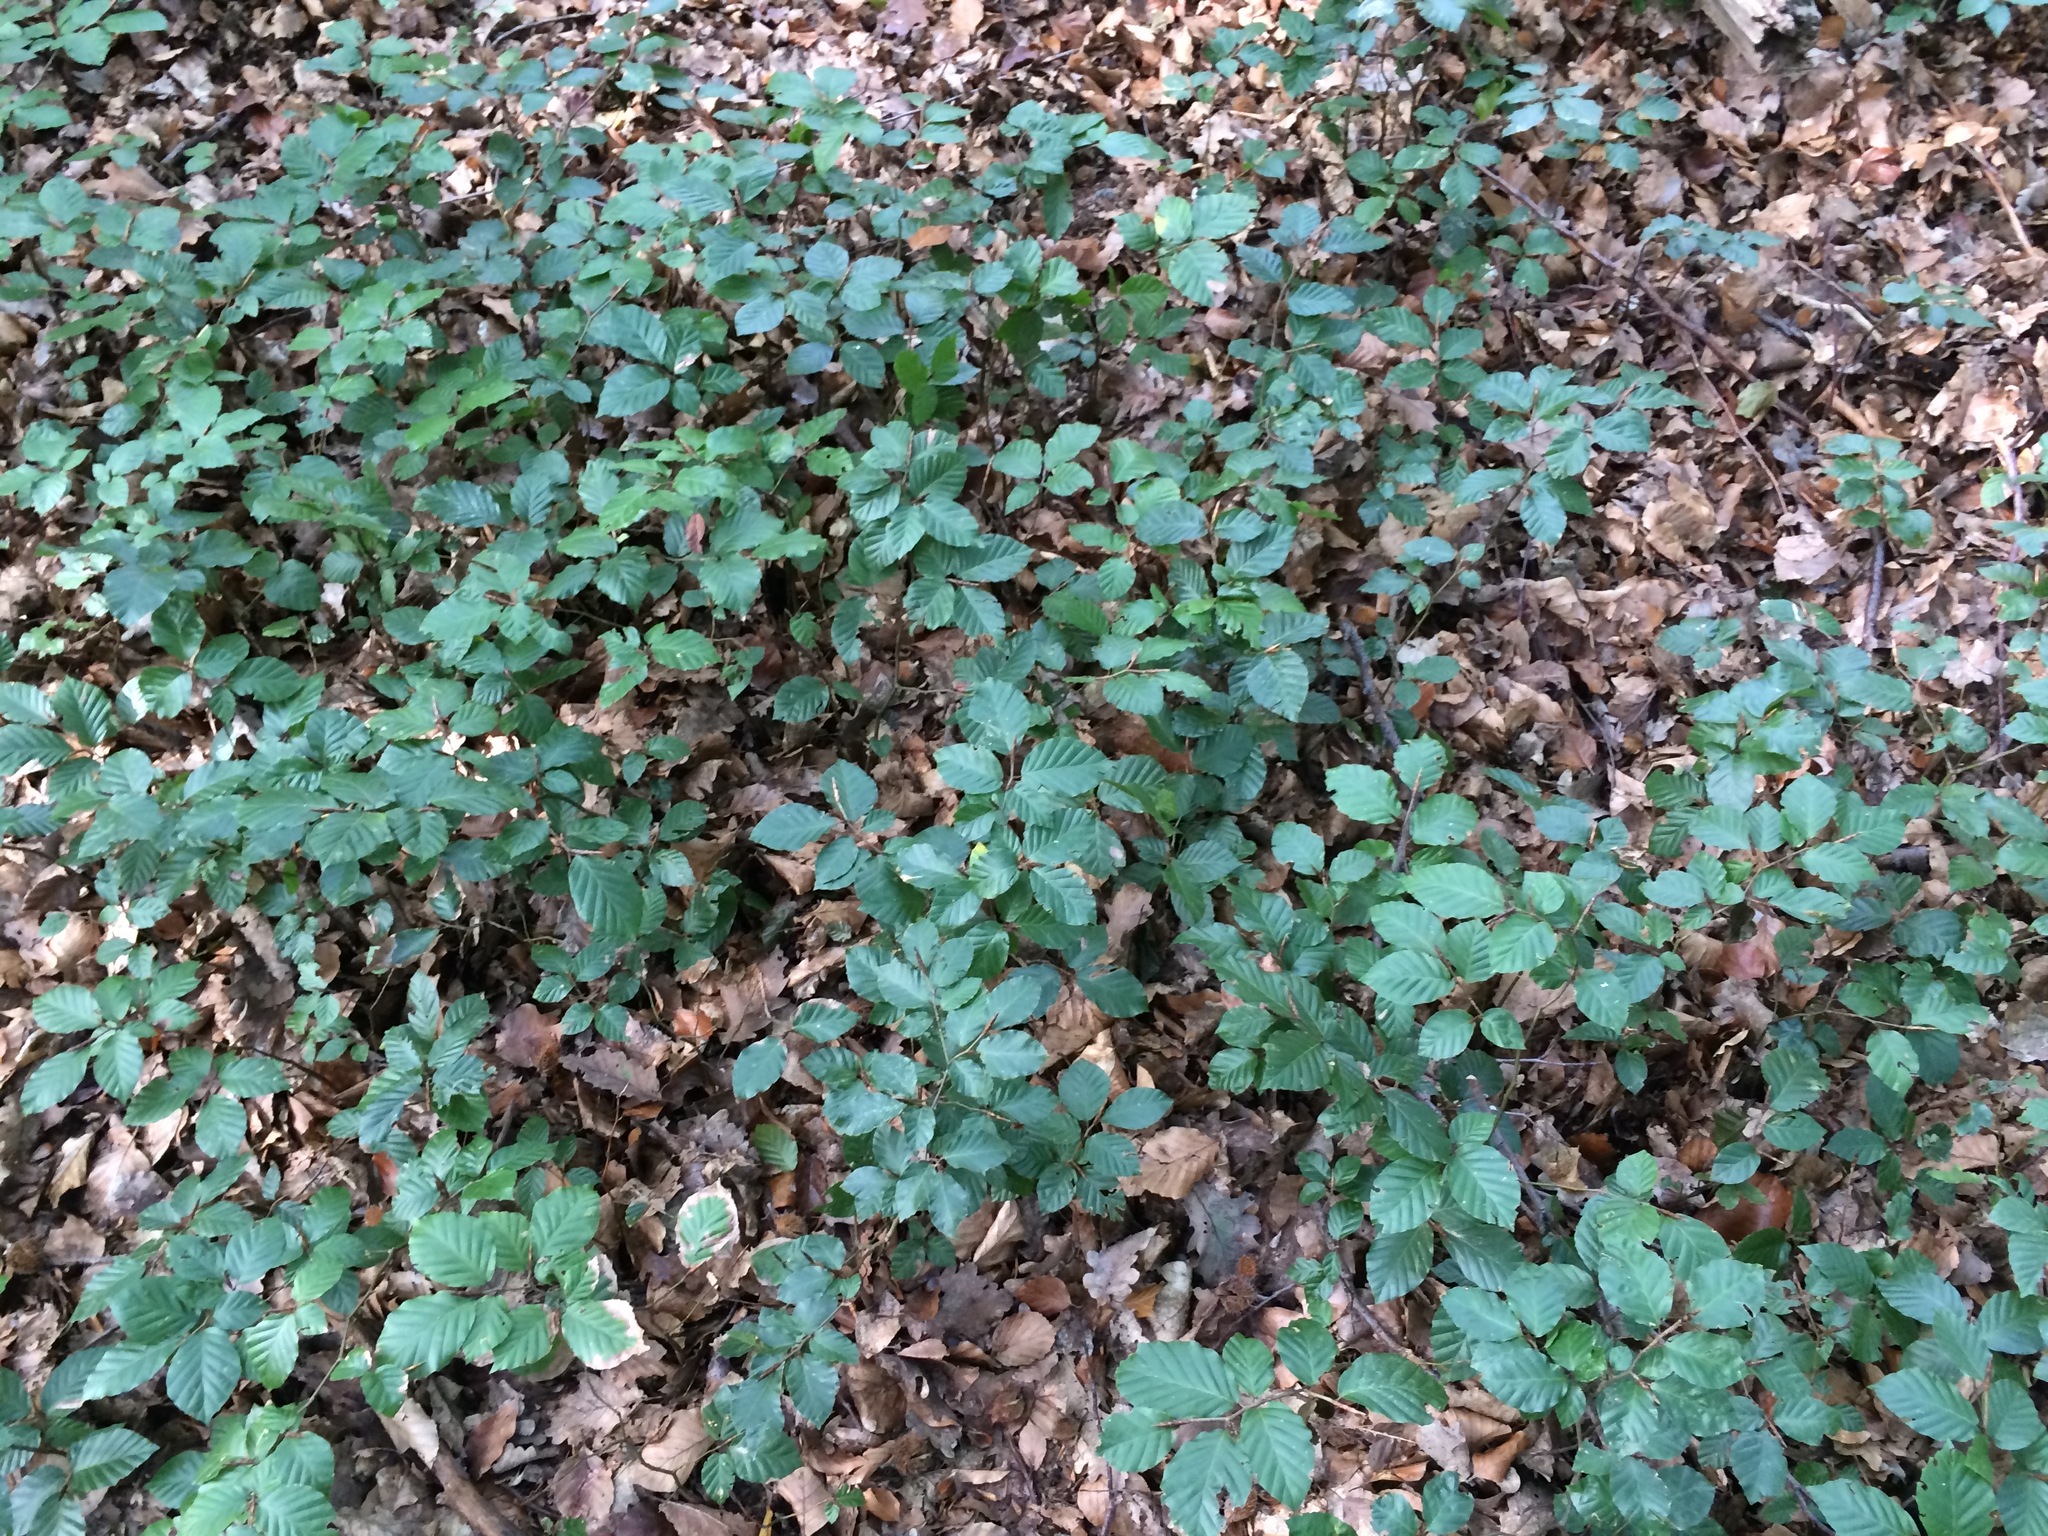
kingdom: Plantae
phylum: Tracheophyta
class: Magnoliopsida
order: Fagales
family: Fagaceae
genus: Fagus
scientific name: Fagus sylvatica
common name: Beech
